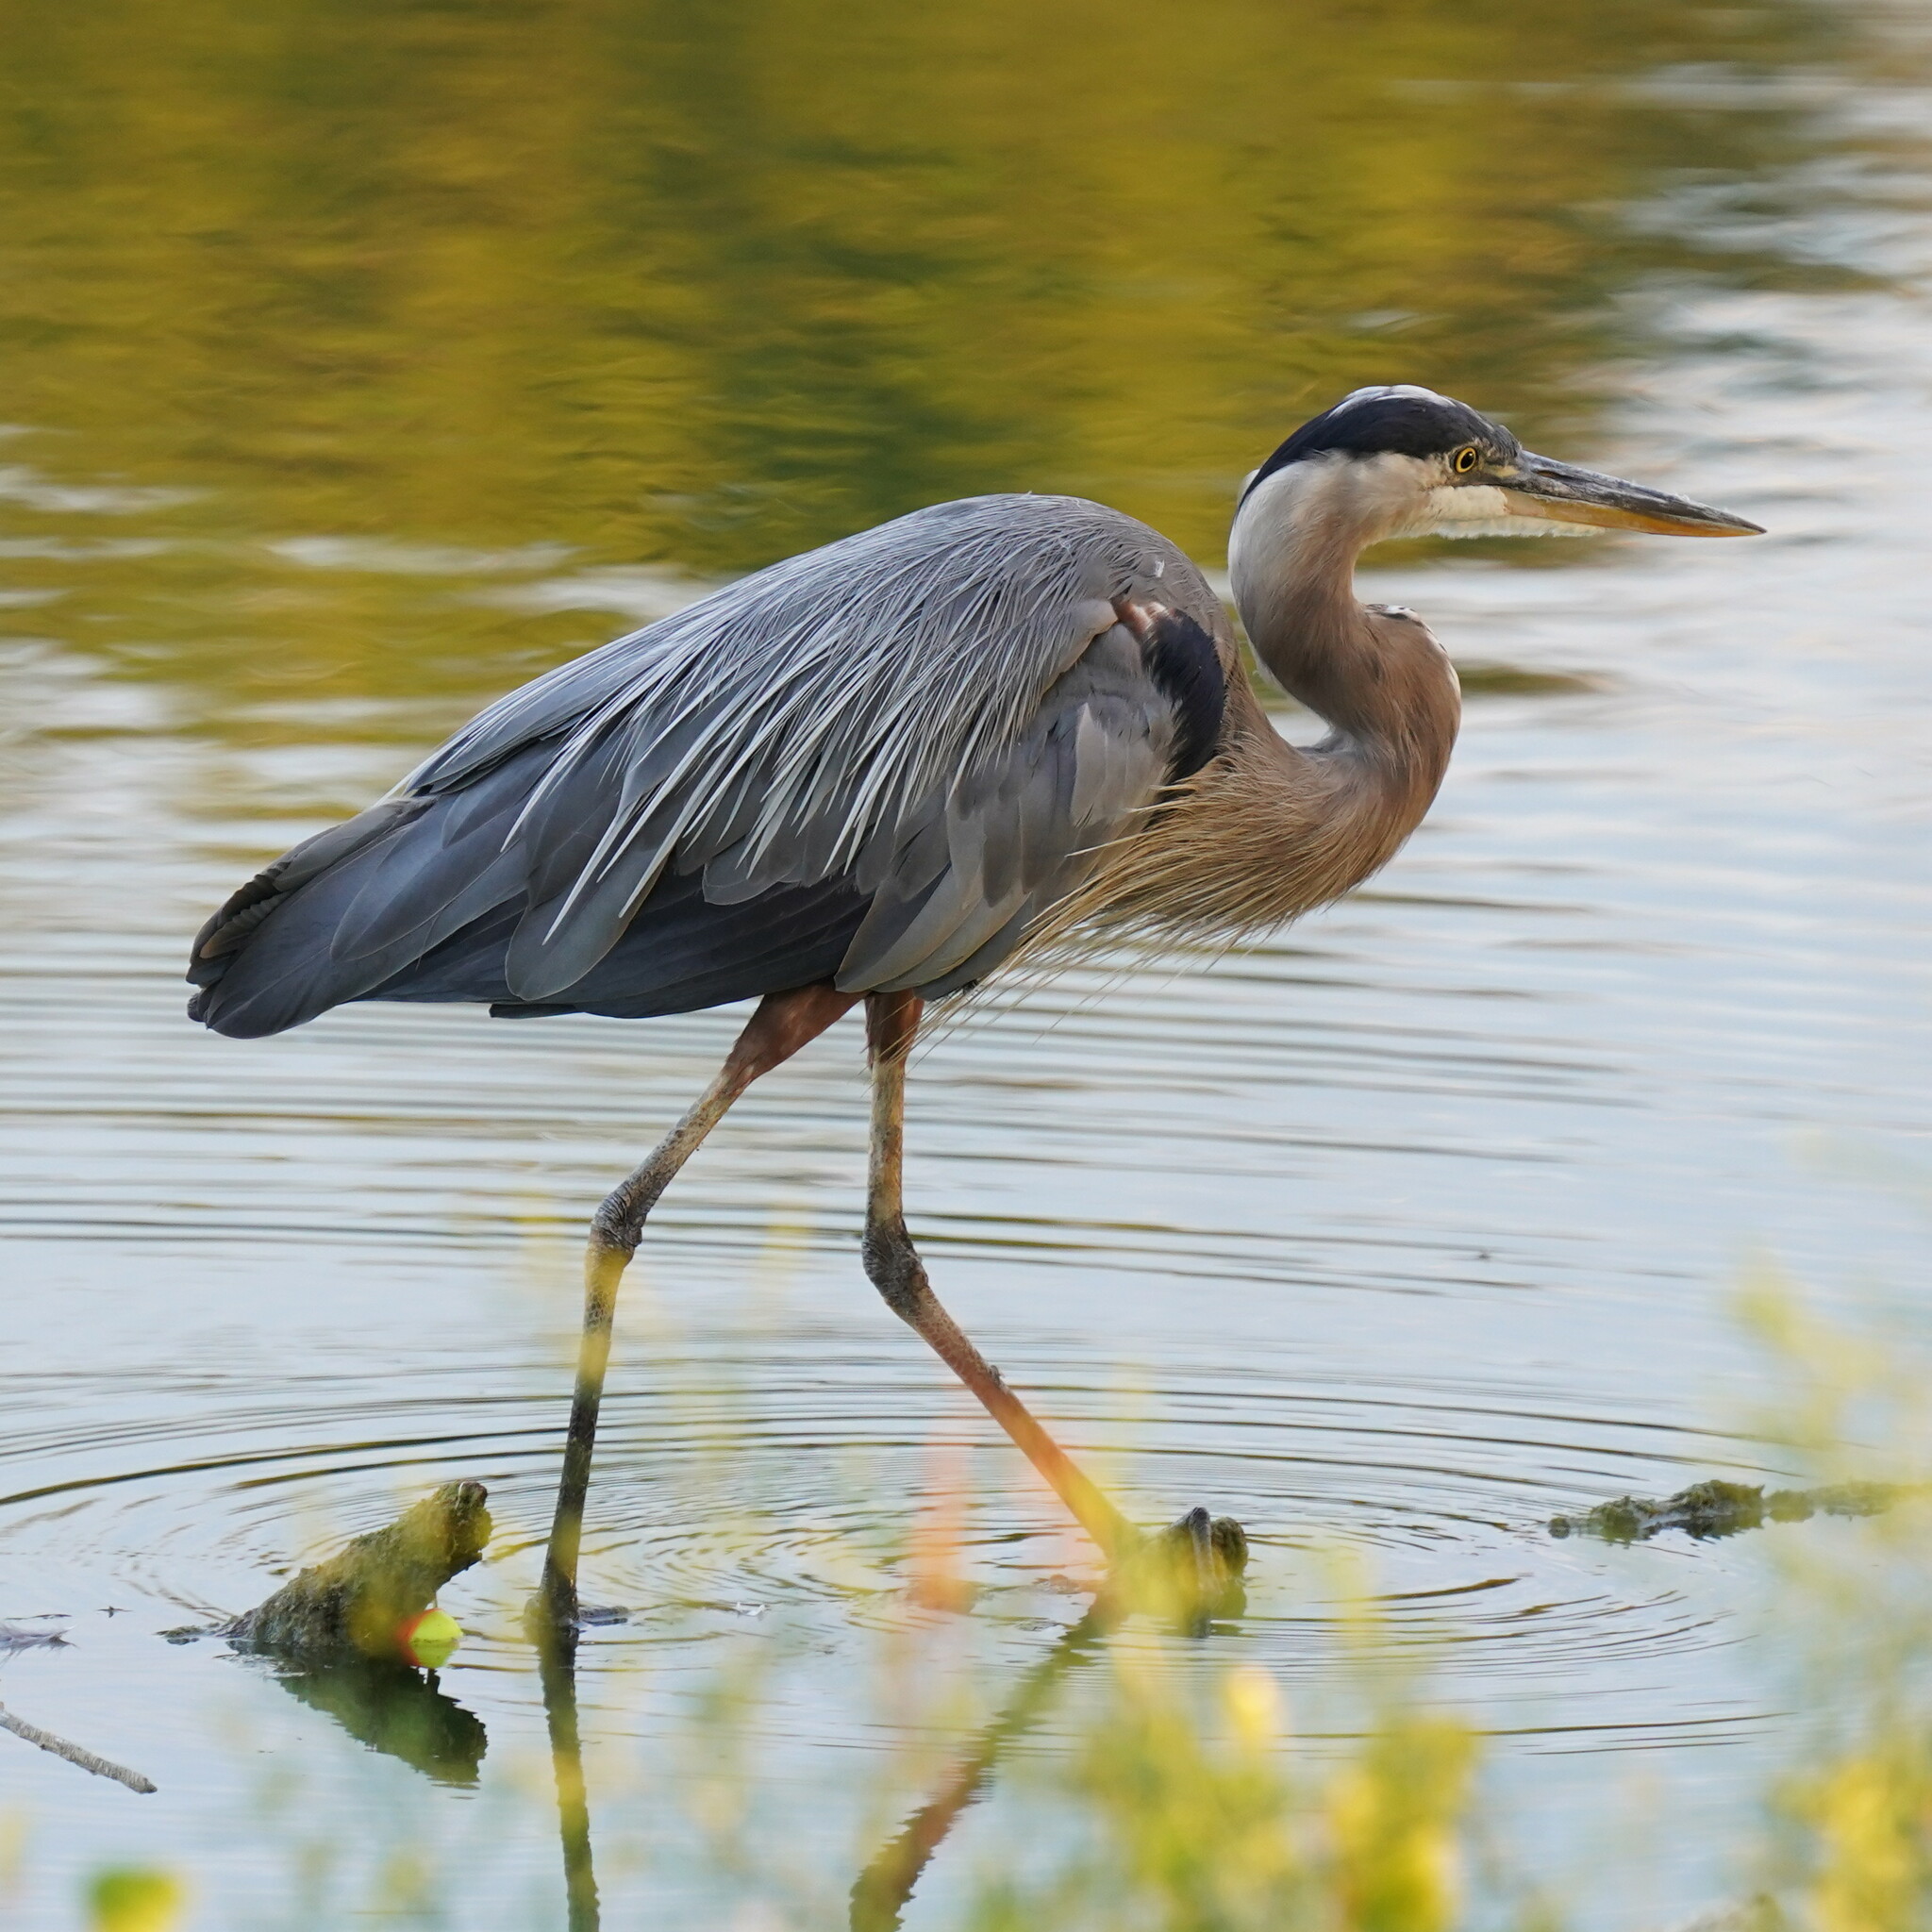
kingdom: Animalia
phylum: Chordata
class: Aves
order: Pelecaniformes
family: Ardeidae
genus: Ardea
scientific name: Ardea herodias
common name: Great blue heron
